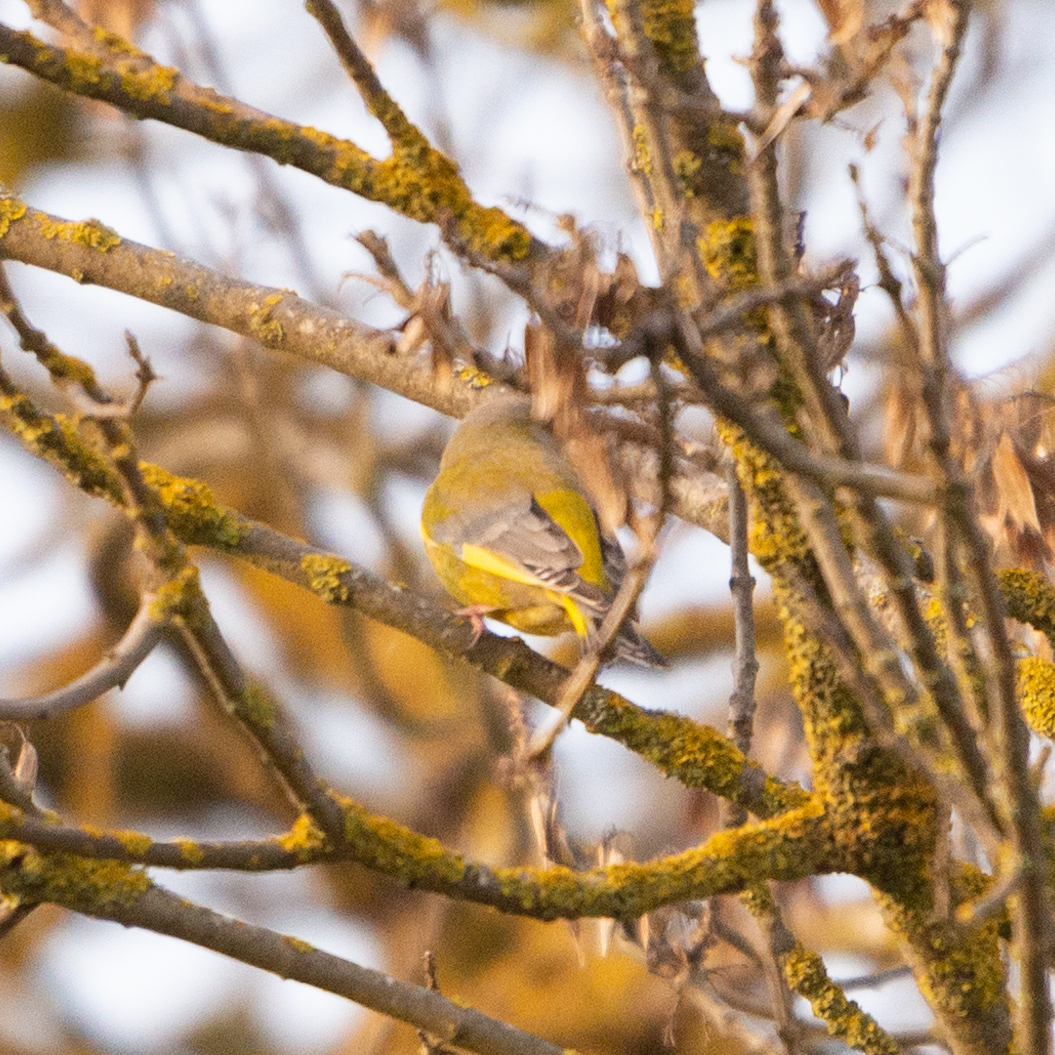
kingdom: Plantae
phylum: Tracheophyta
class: Liliopsida
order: Poales
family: Poaceae
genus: Chloris
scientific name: Chloris chloris
